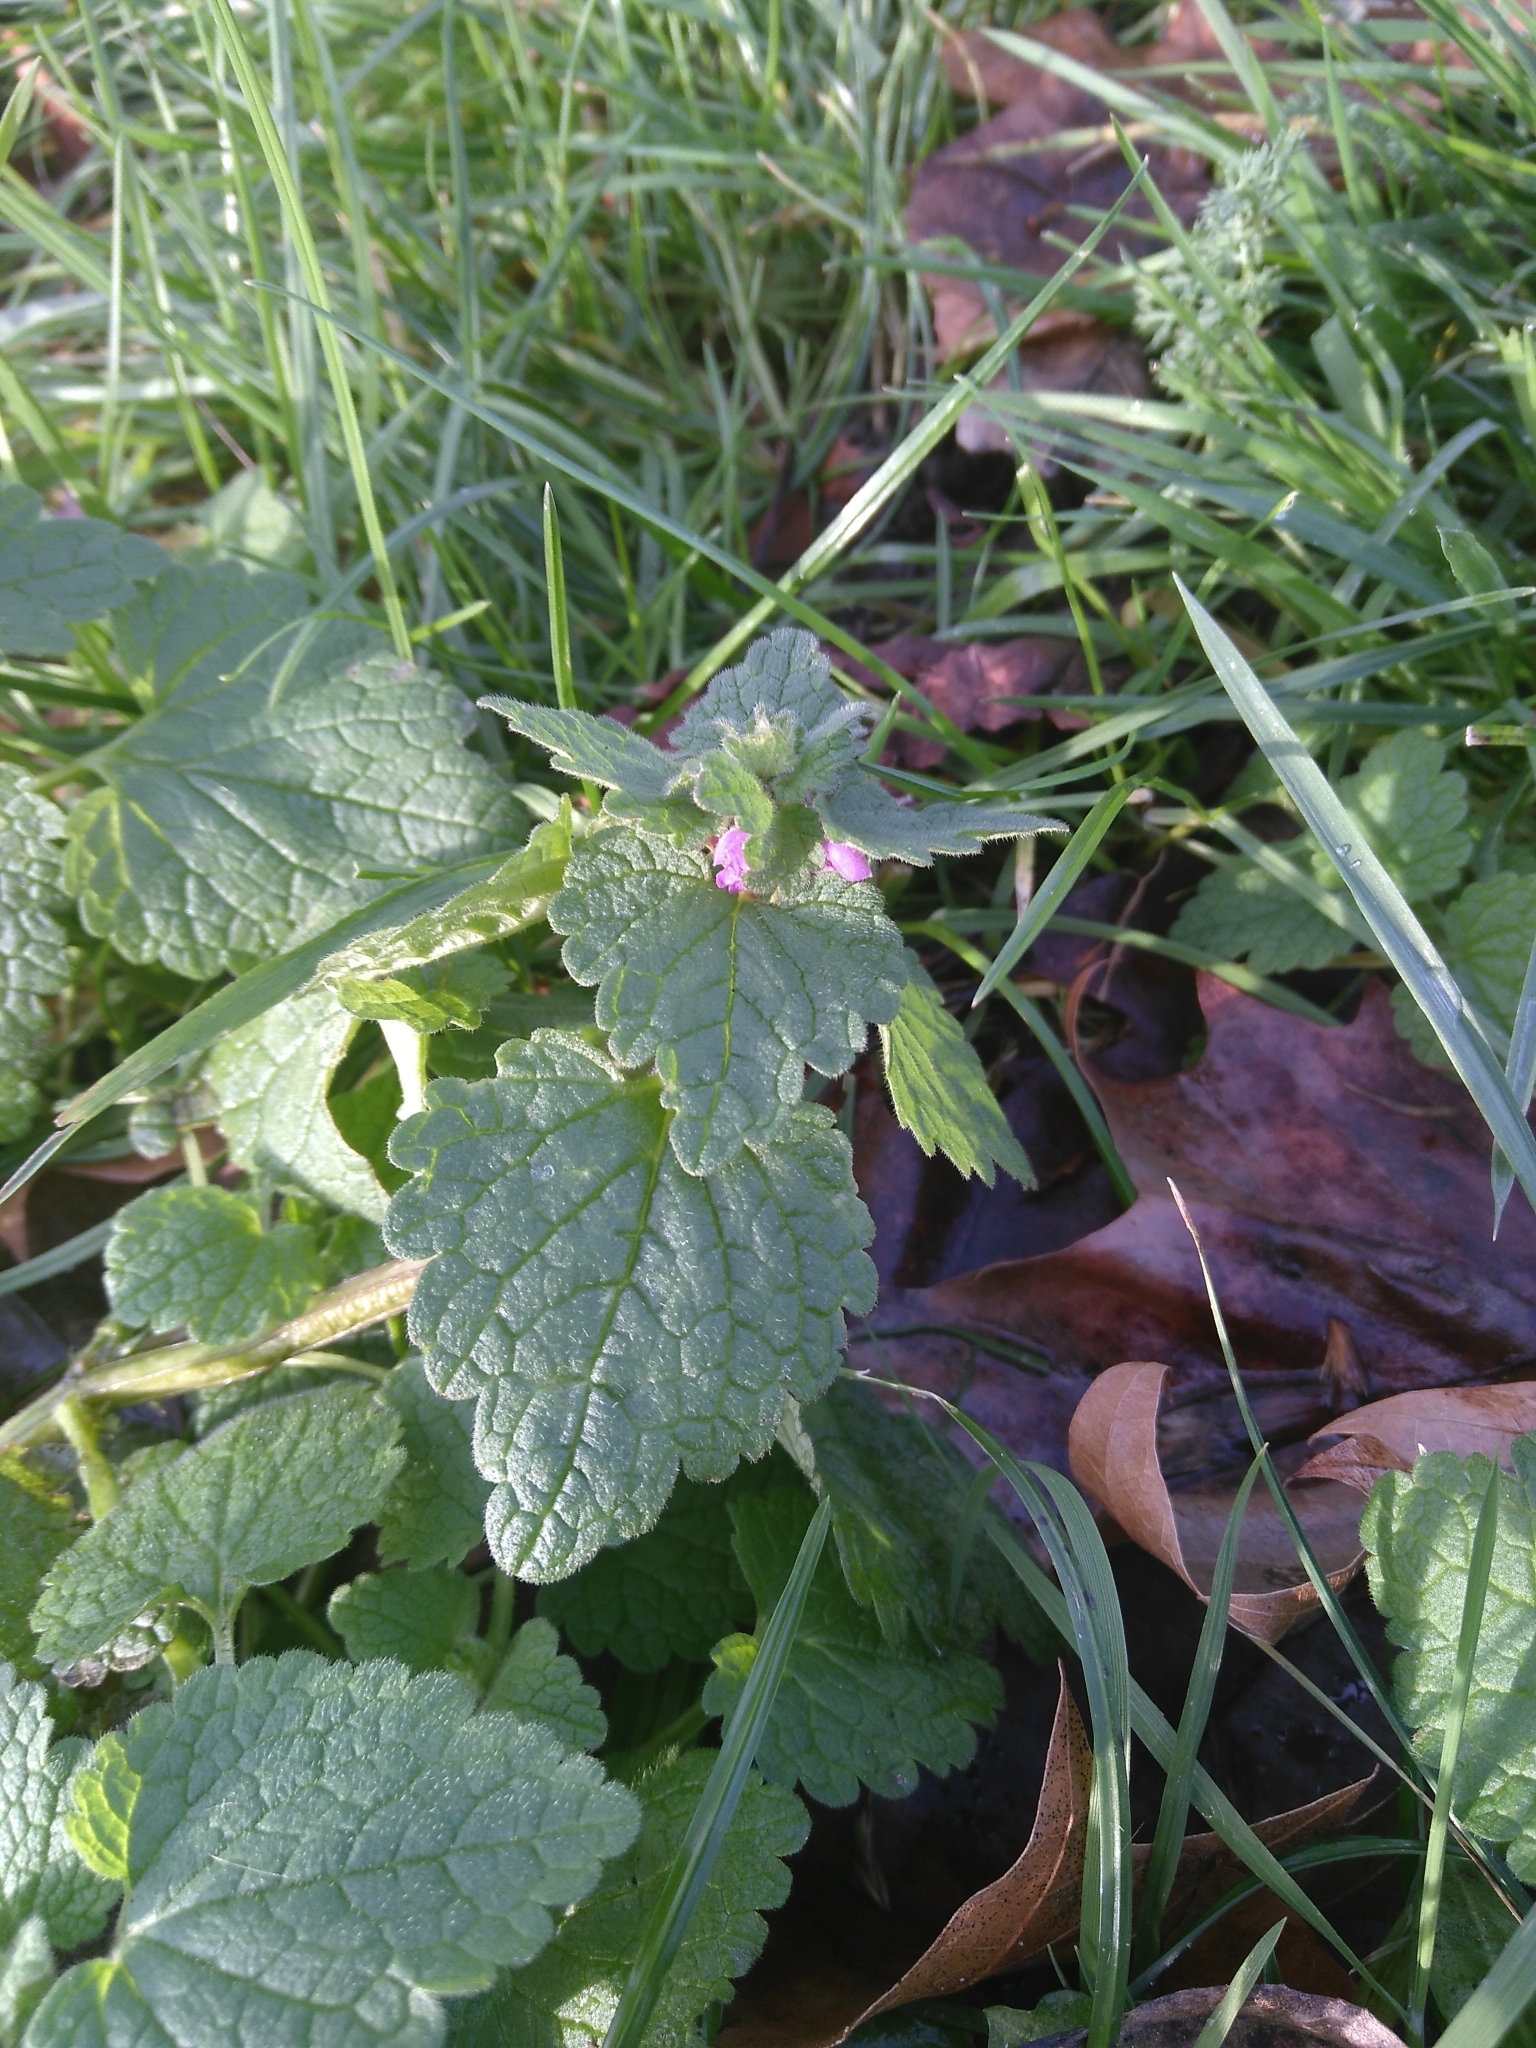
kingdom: Plantae
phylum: Tracheophyta
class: Magnoliopsida
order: Lamiales
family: Lamiaceae
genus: Lamium
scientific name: Lamium purpureum
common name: Red dead-nettle
